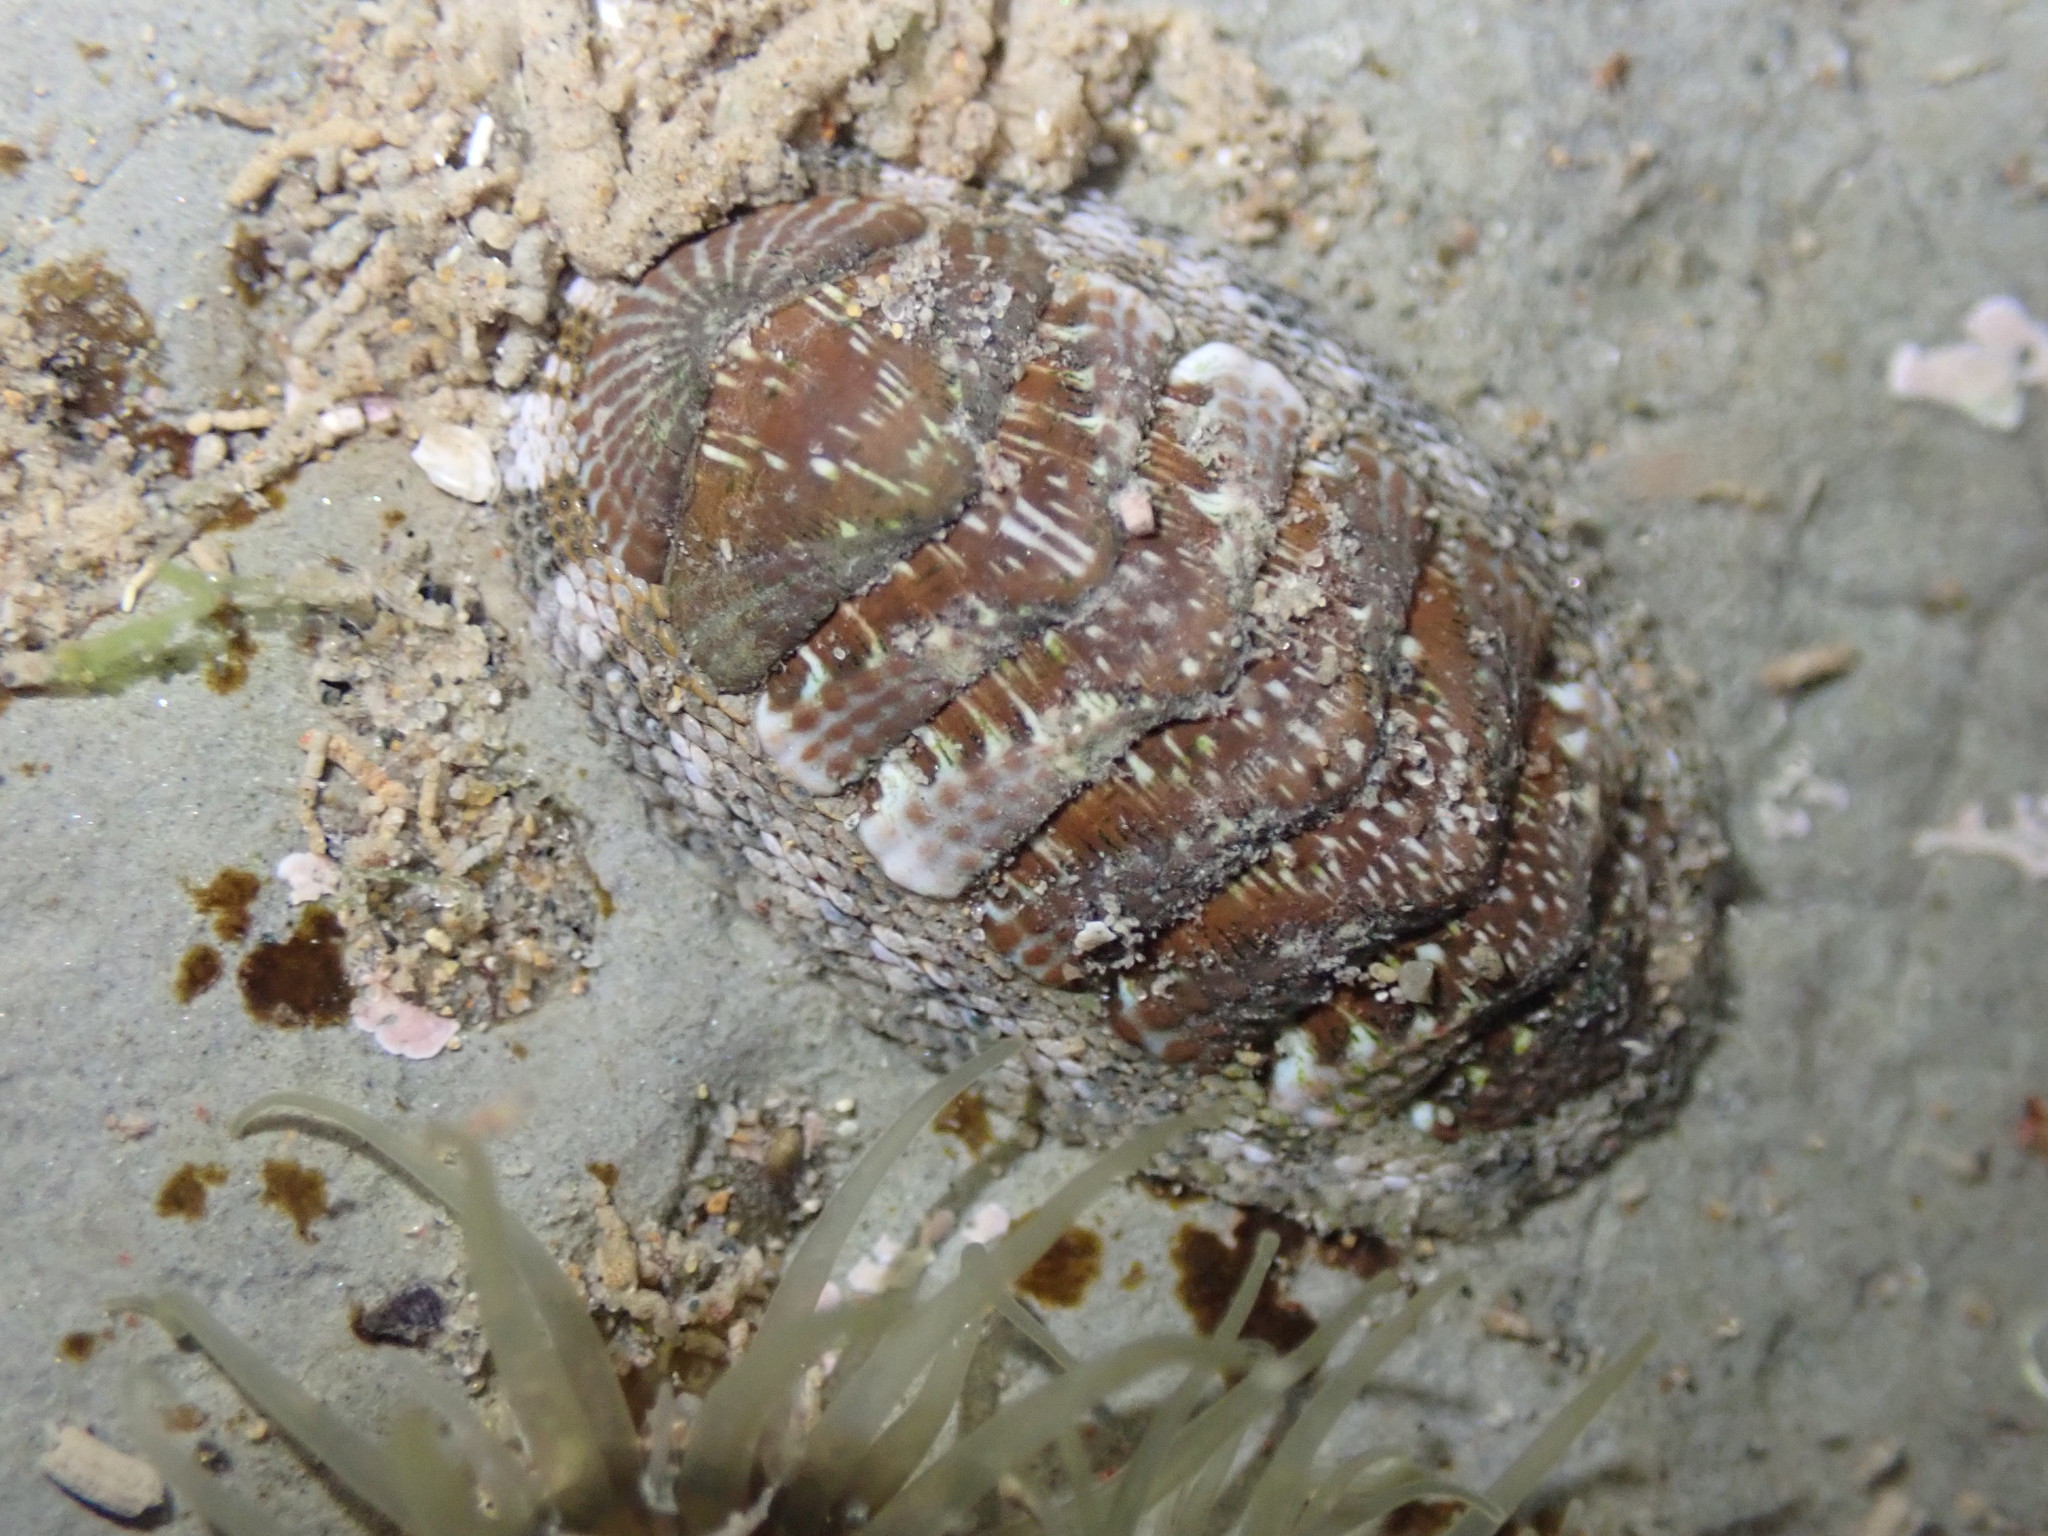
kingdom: Animalia
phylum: Mollusca
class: Polyplacophora
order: Chitonida
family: Chitonidae
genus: Sypharochiton
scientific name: Sypharochiton sinclairi
